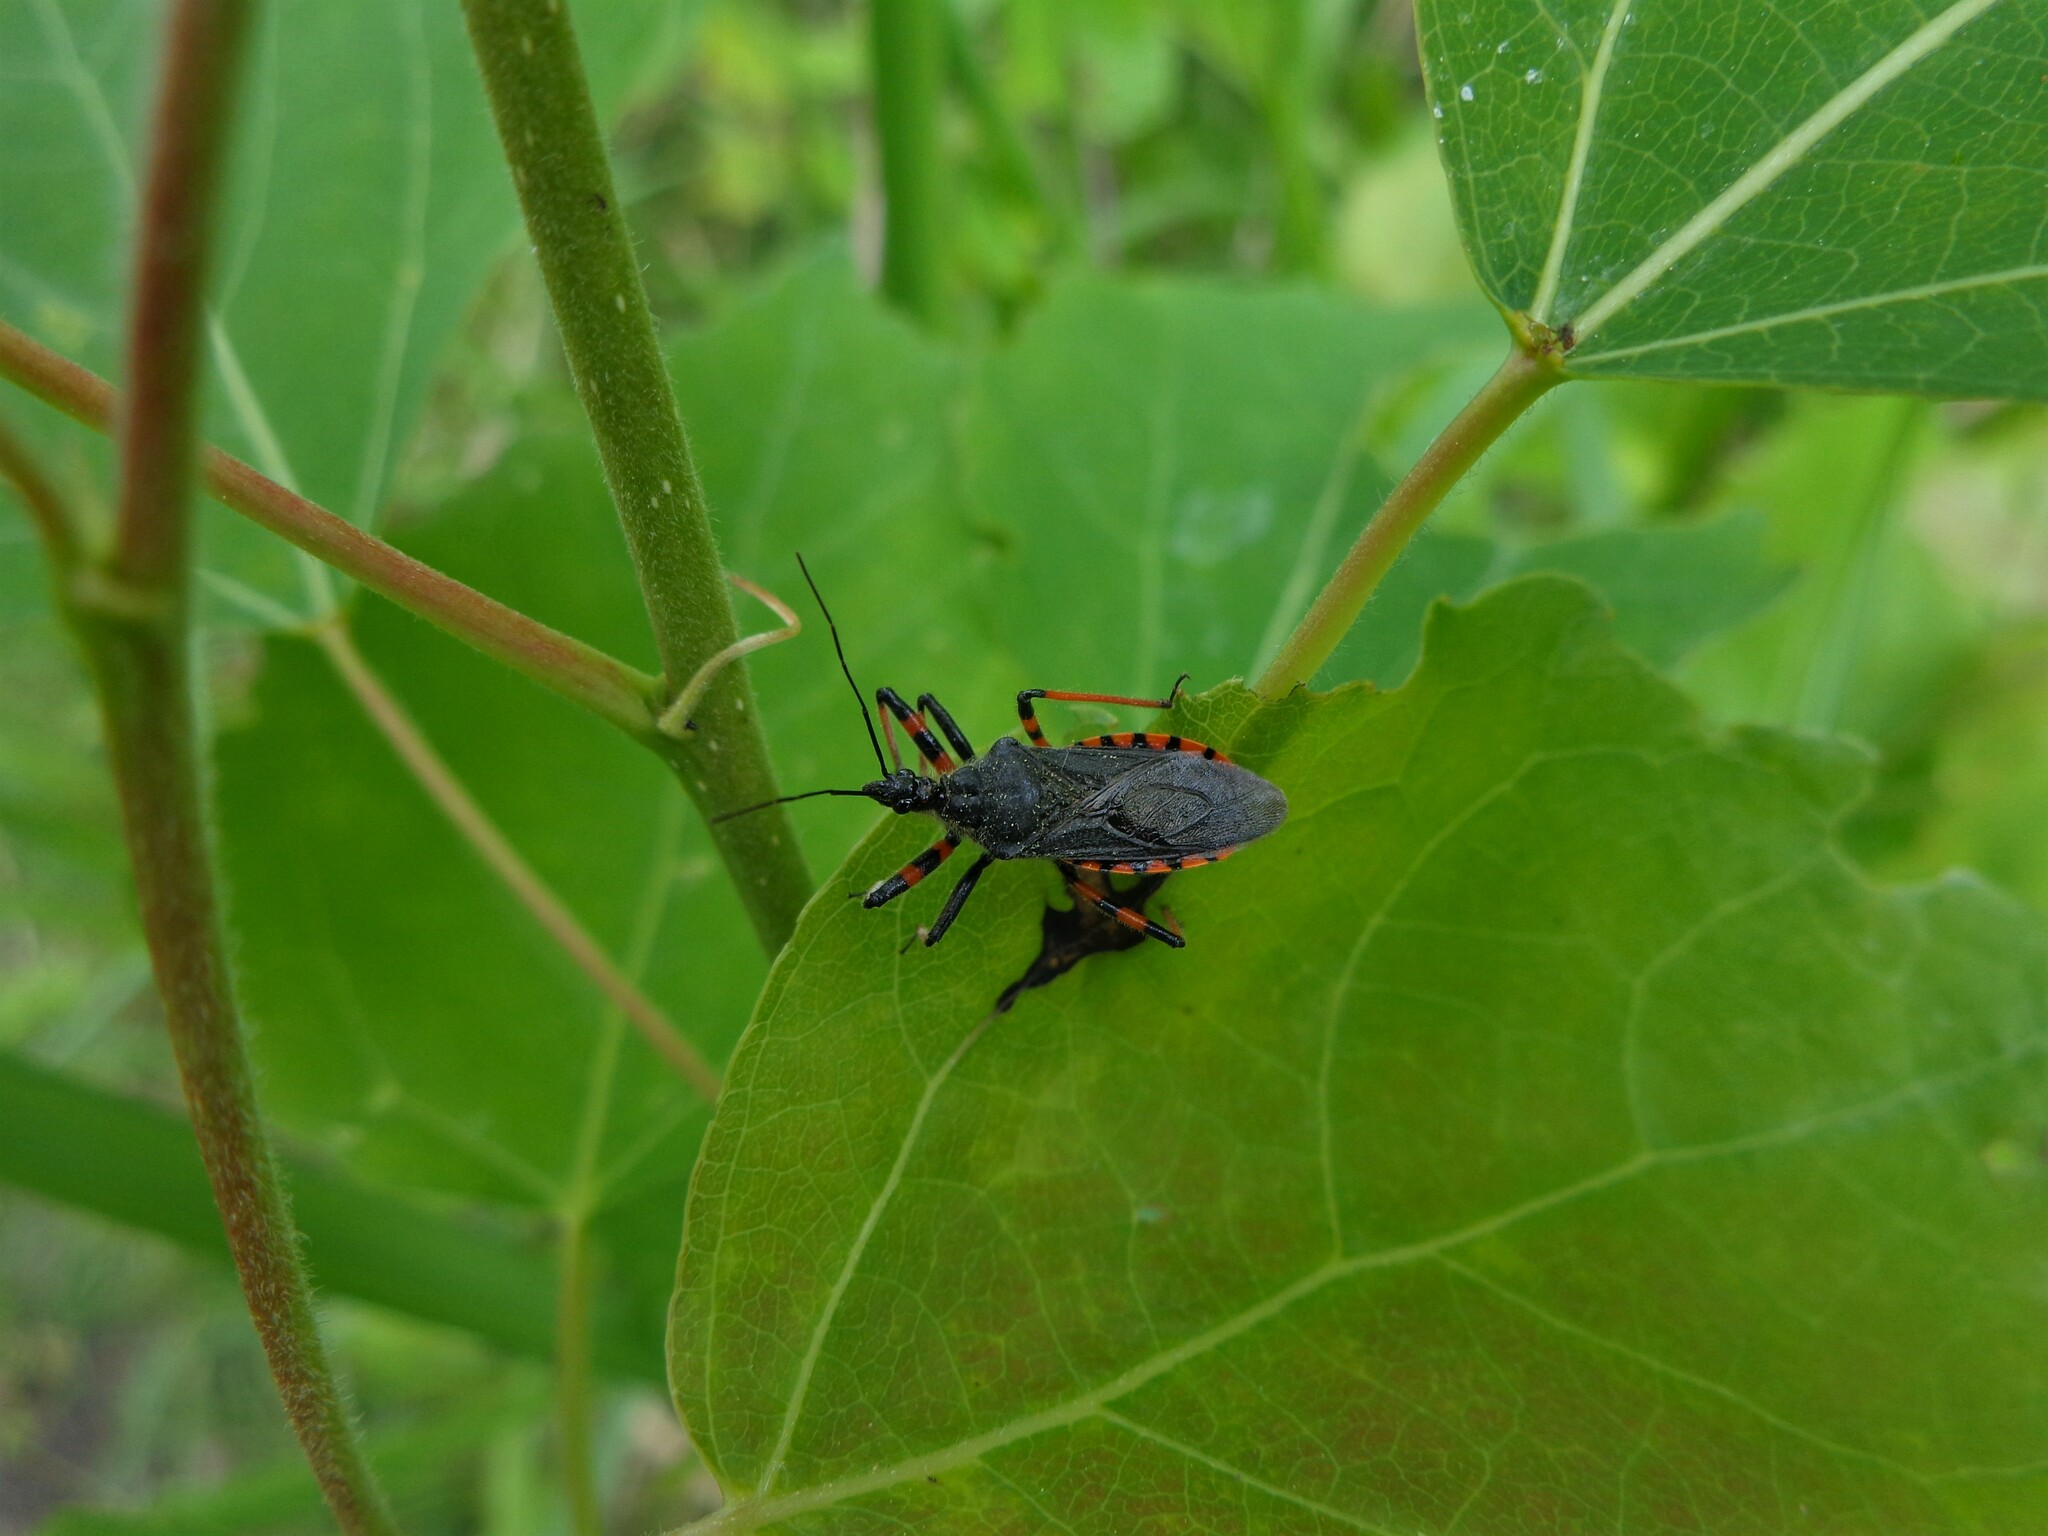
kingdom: Animalia
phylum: Arthropoda
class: Insecta
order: Hemiptera
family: Reduviidae
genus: Rhynocoris
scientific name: Rhynocoris annulatus
